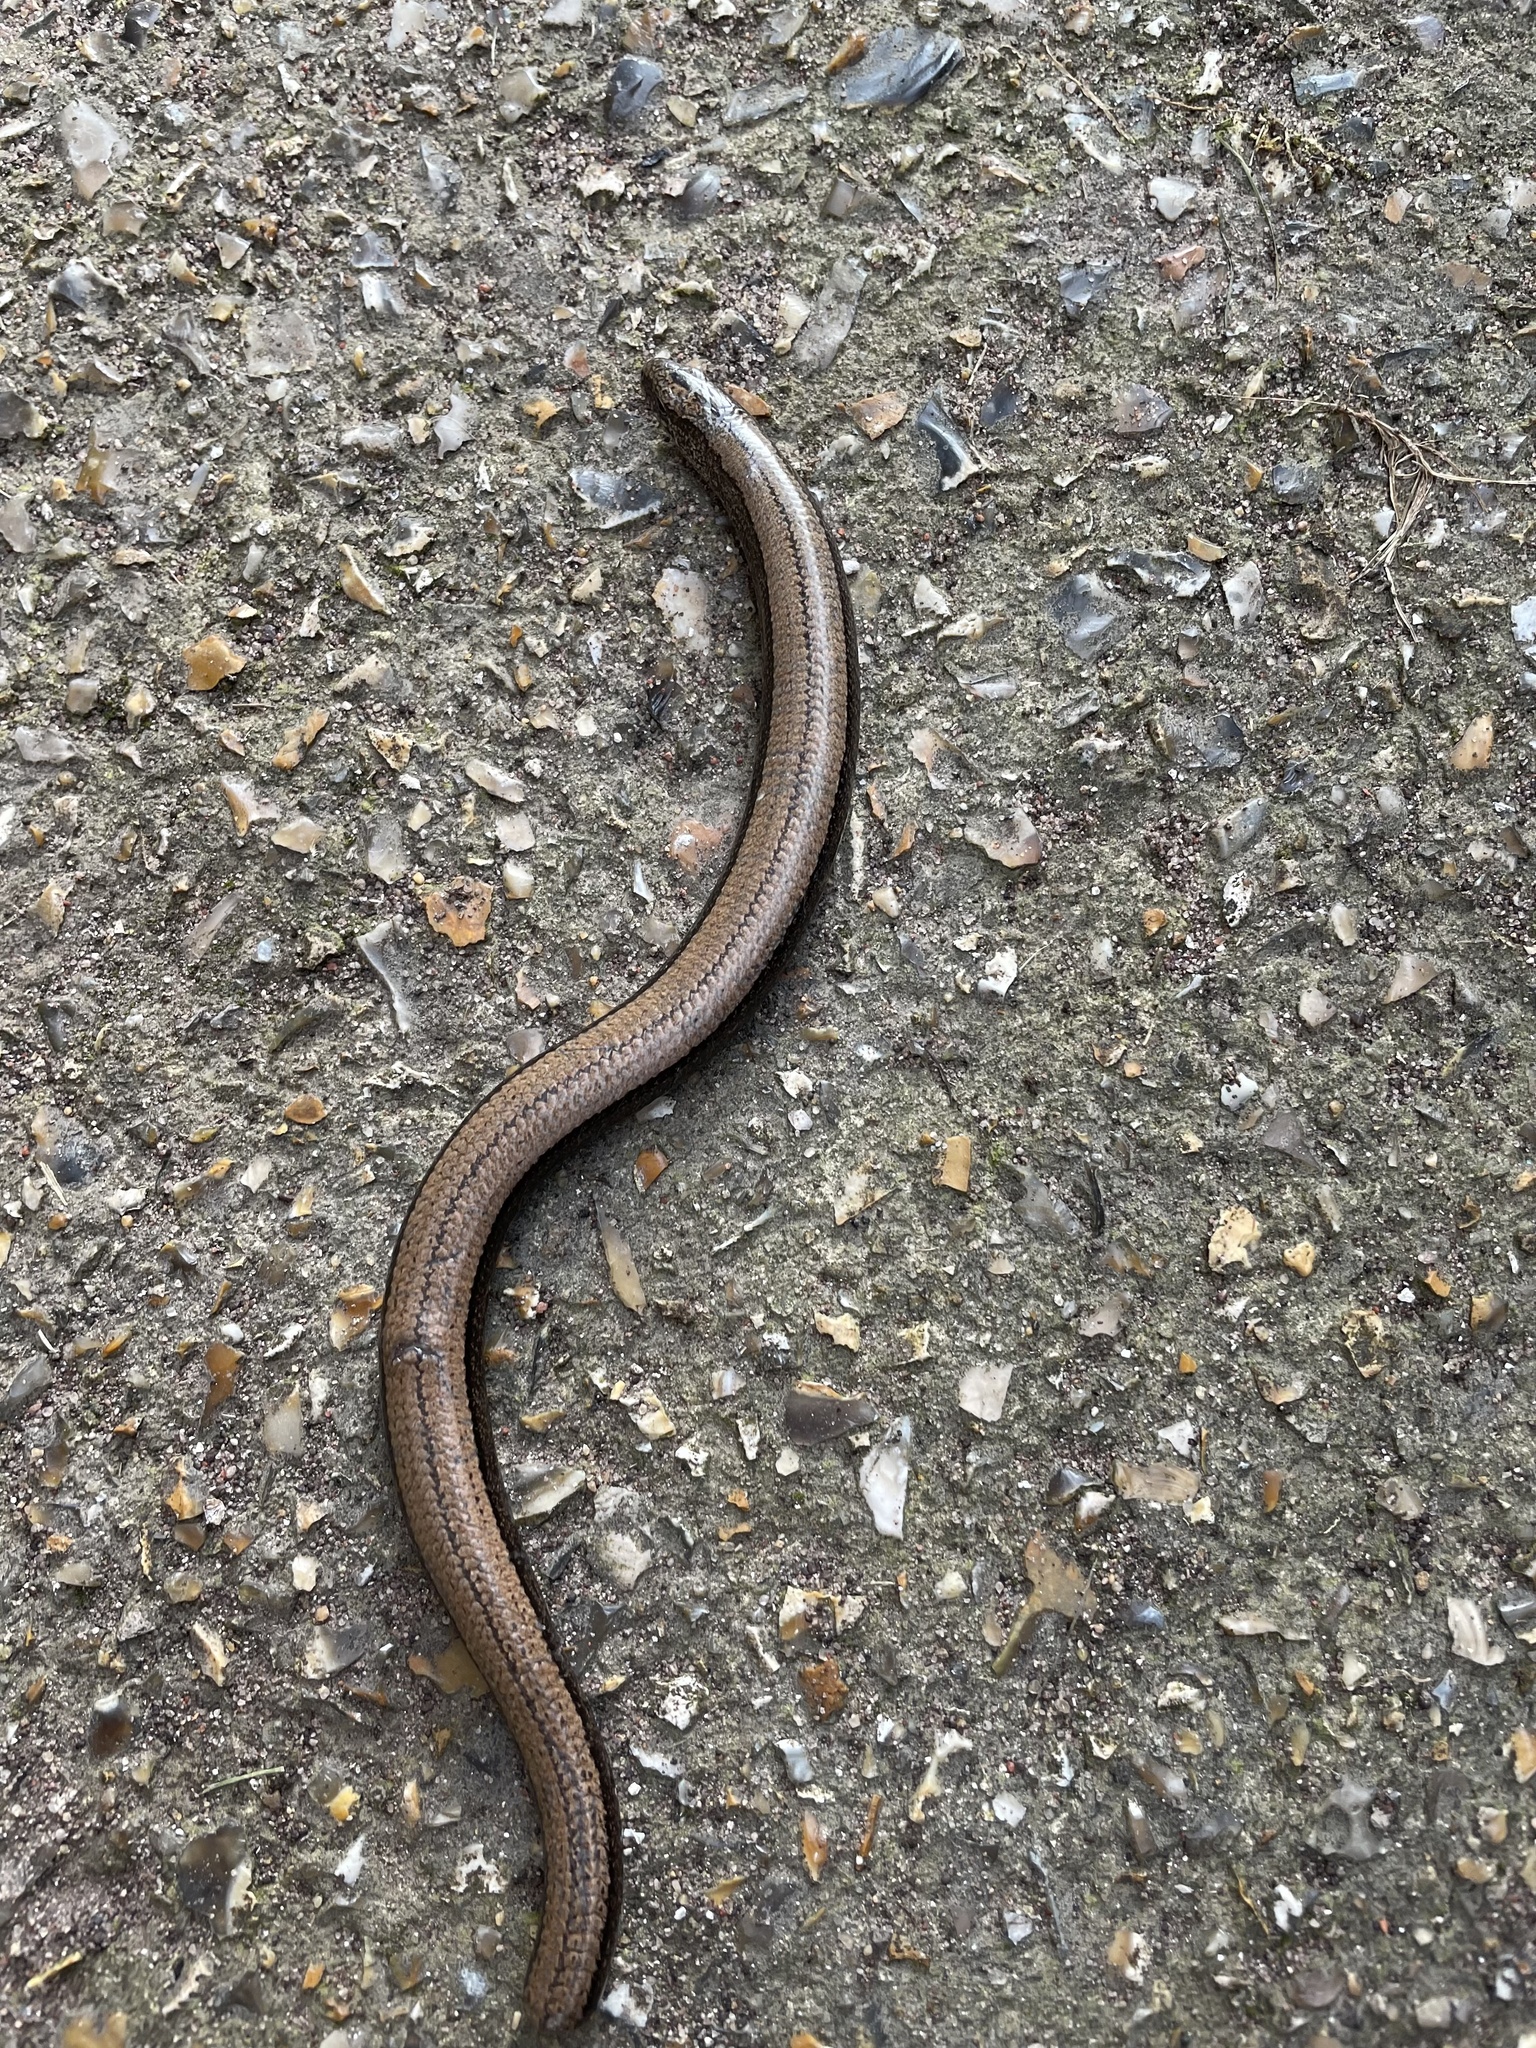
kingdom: Animalia
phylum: Chordata
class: Squamata
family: Anguidae
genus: Anguis
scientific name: Anguis fragilis
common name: Slow worm
